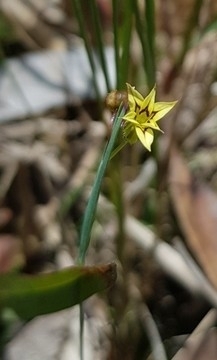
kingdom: Plantae
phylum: Tracheophyta
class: Liliopsida
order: Asparagales
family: Iridaceae
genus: Sisyrinchium
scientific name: Sisyrinchium micranthum
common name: Bermuda pigroot
